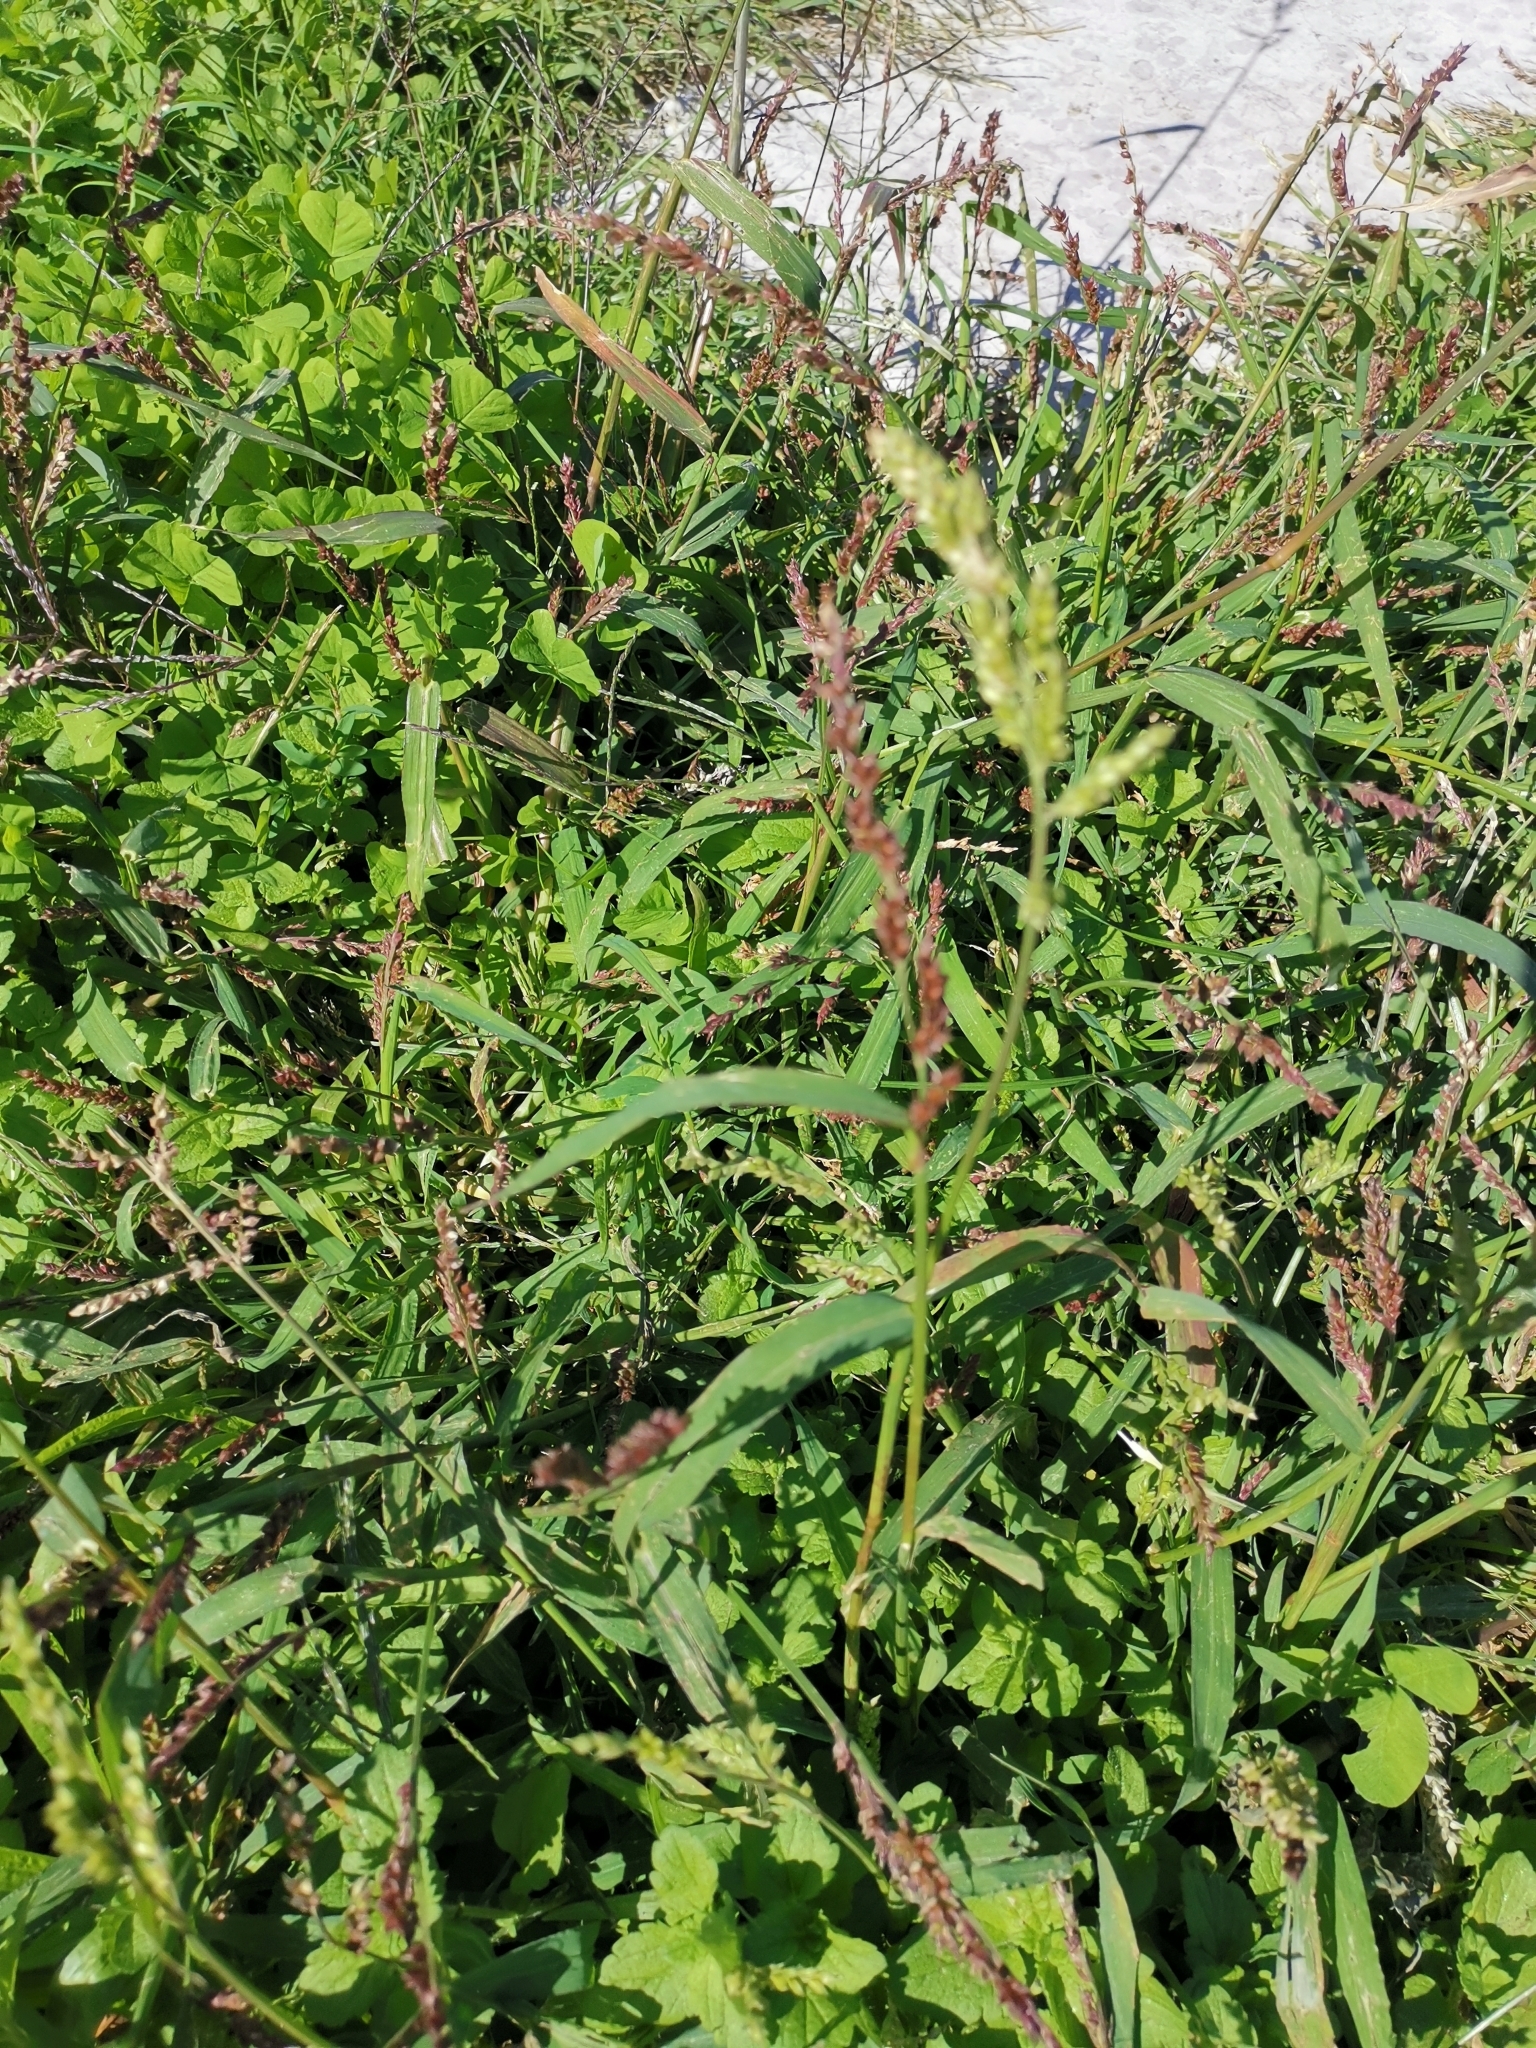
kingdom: Plantae
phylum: Tracheophyta
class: Liliopsida
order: Poales
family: Poaceae
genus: Echinochloa
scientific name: Echinochloa crus-galli
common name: Cockspur
